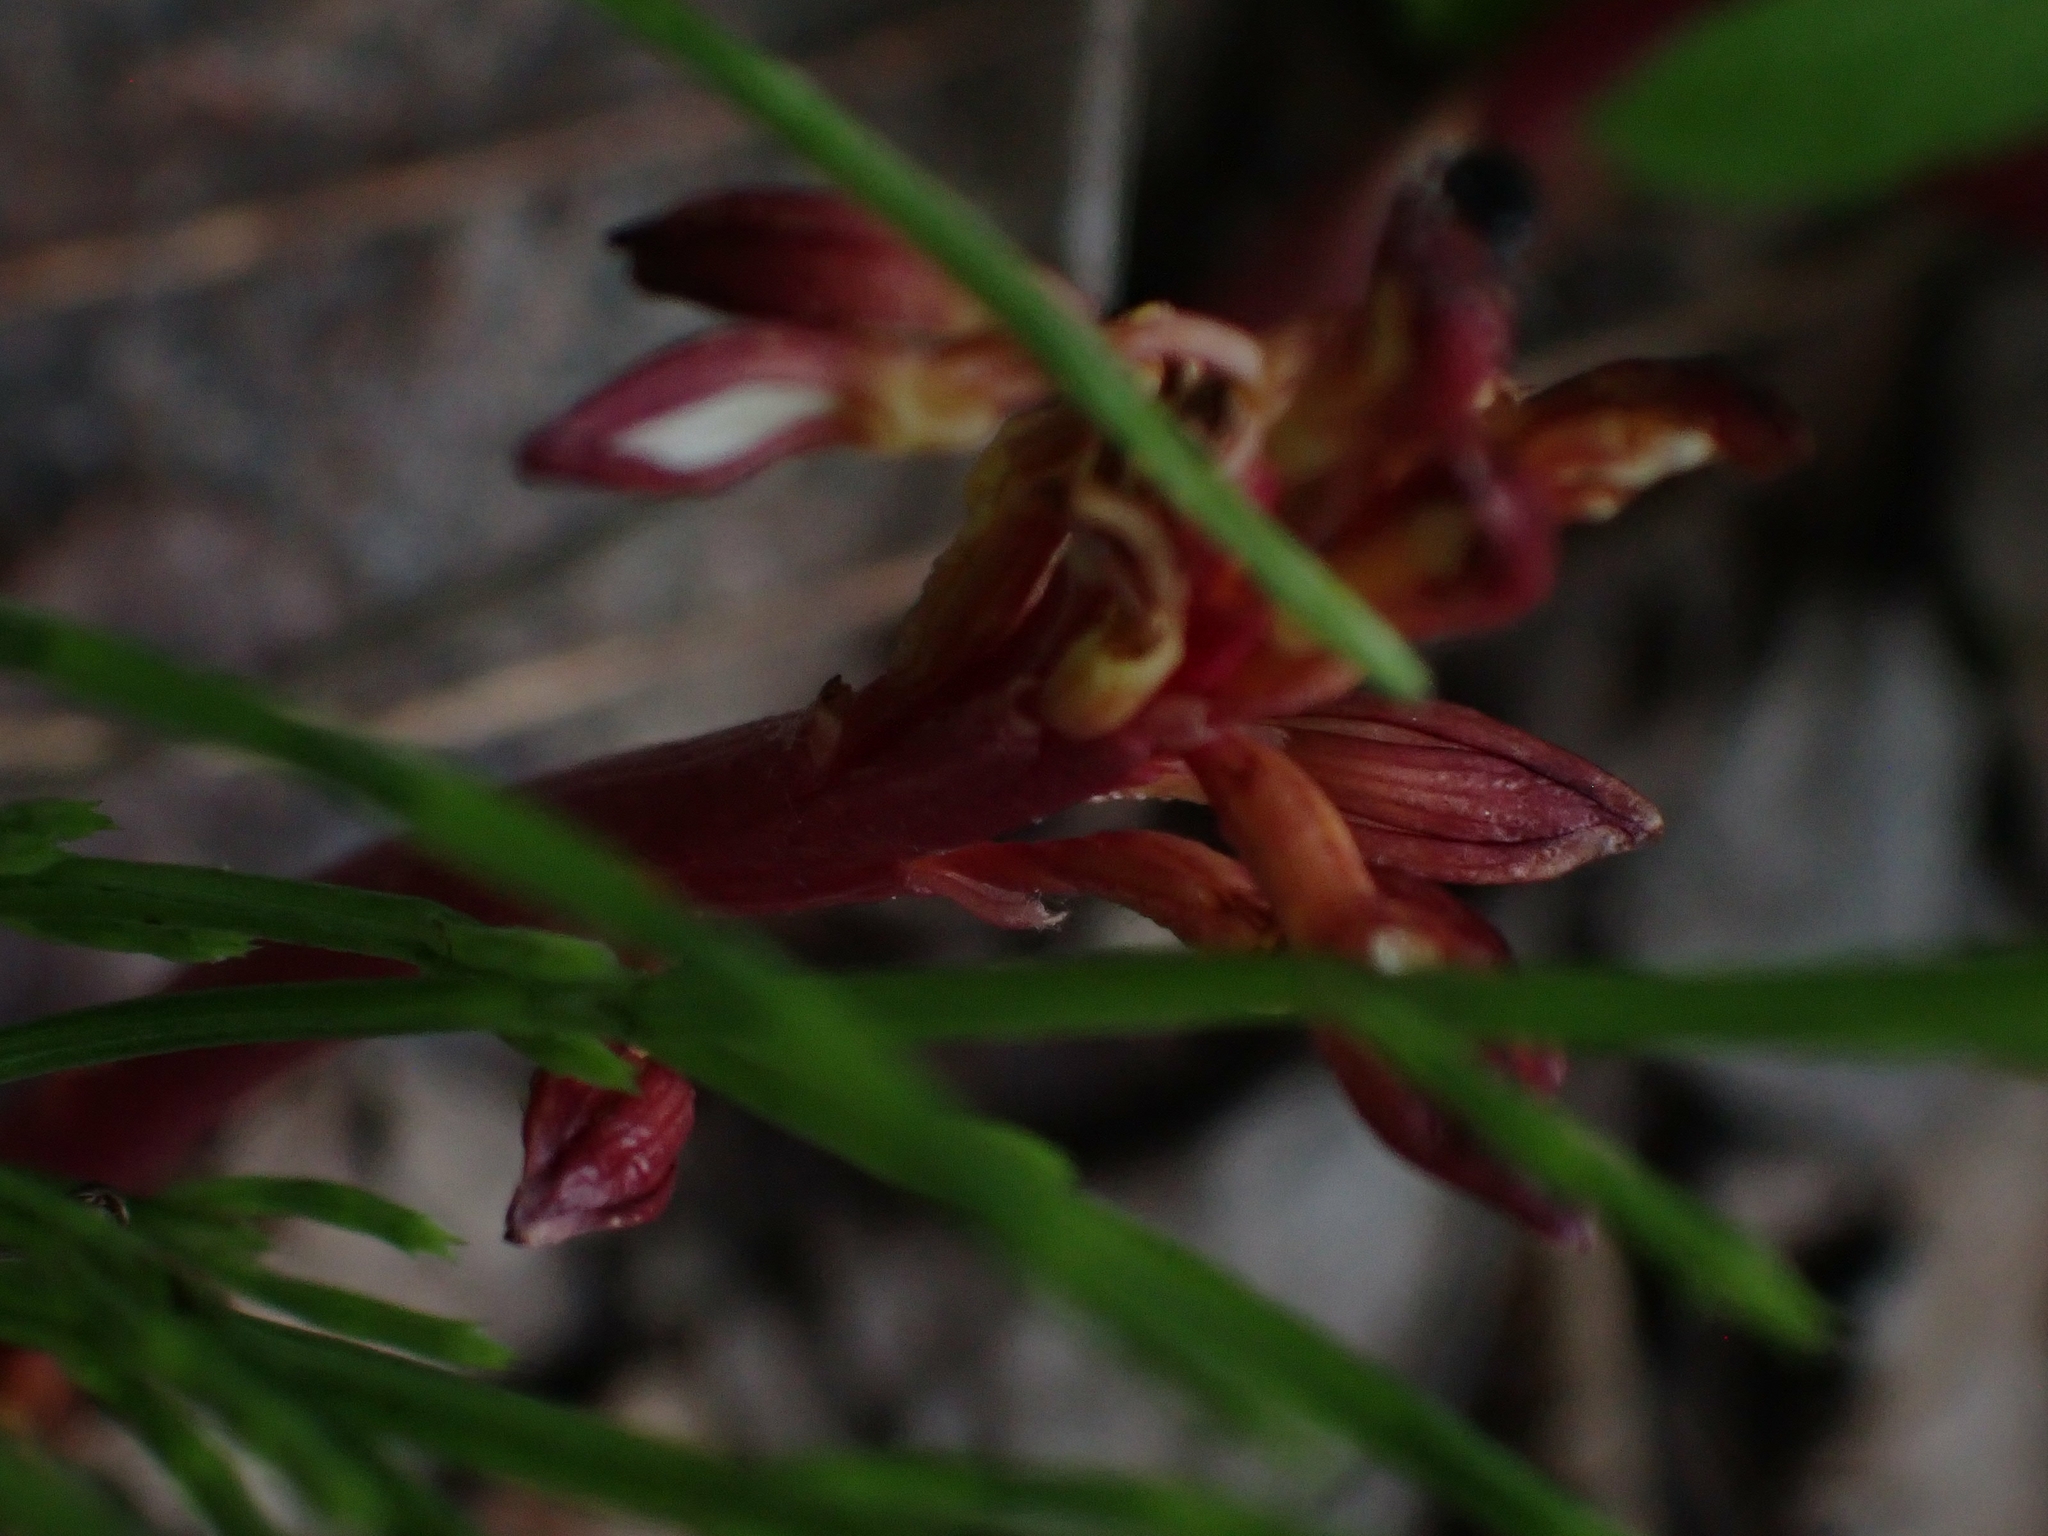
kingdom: Plantae
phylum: Tracheophyta
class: Liliopsida
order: Asparagales
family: Orchidaceae
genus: Corallorhiza
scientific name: Corallorhiza maculata
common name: Spotted coralroot
